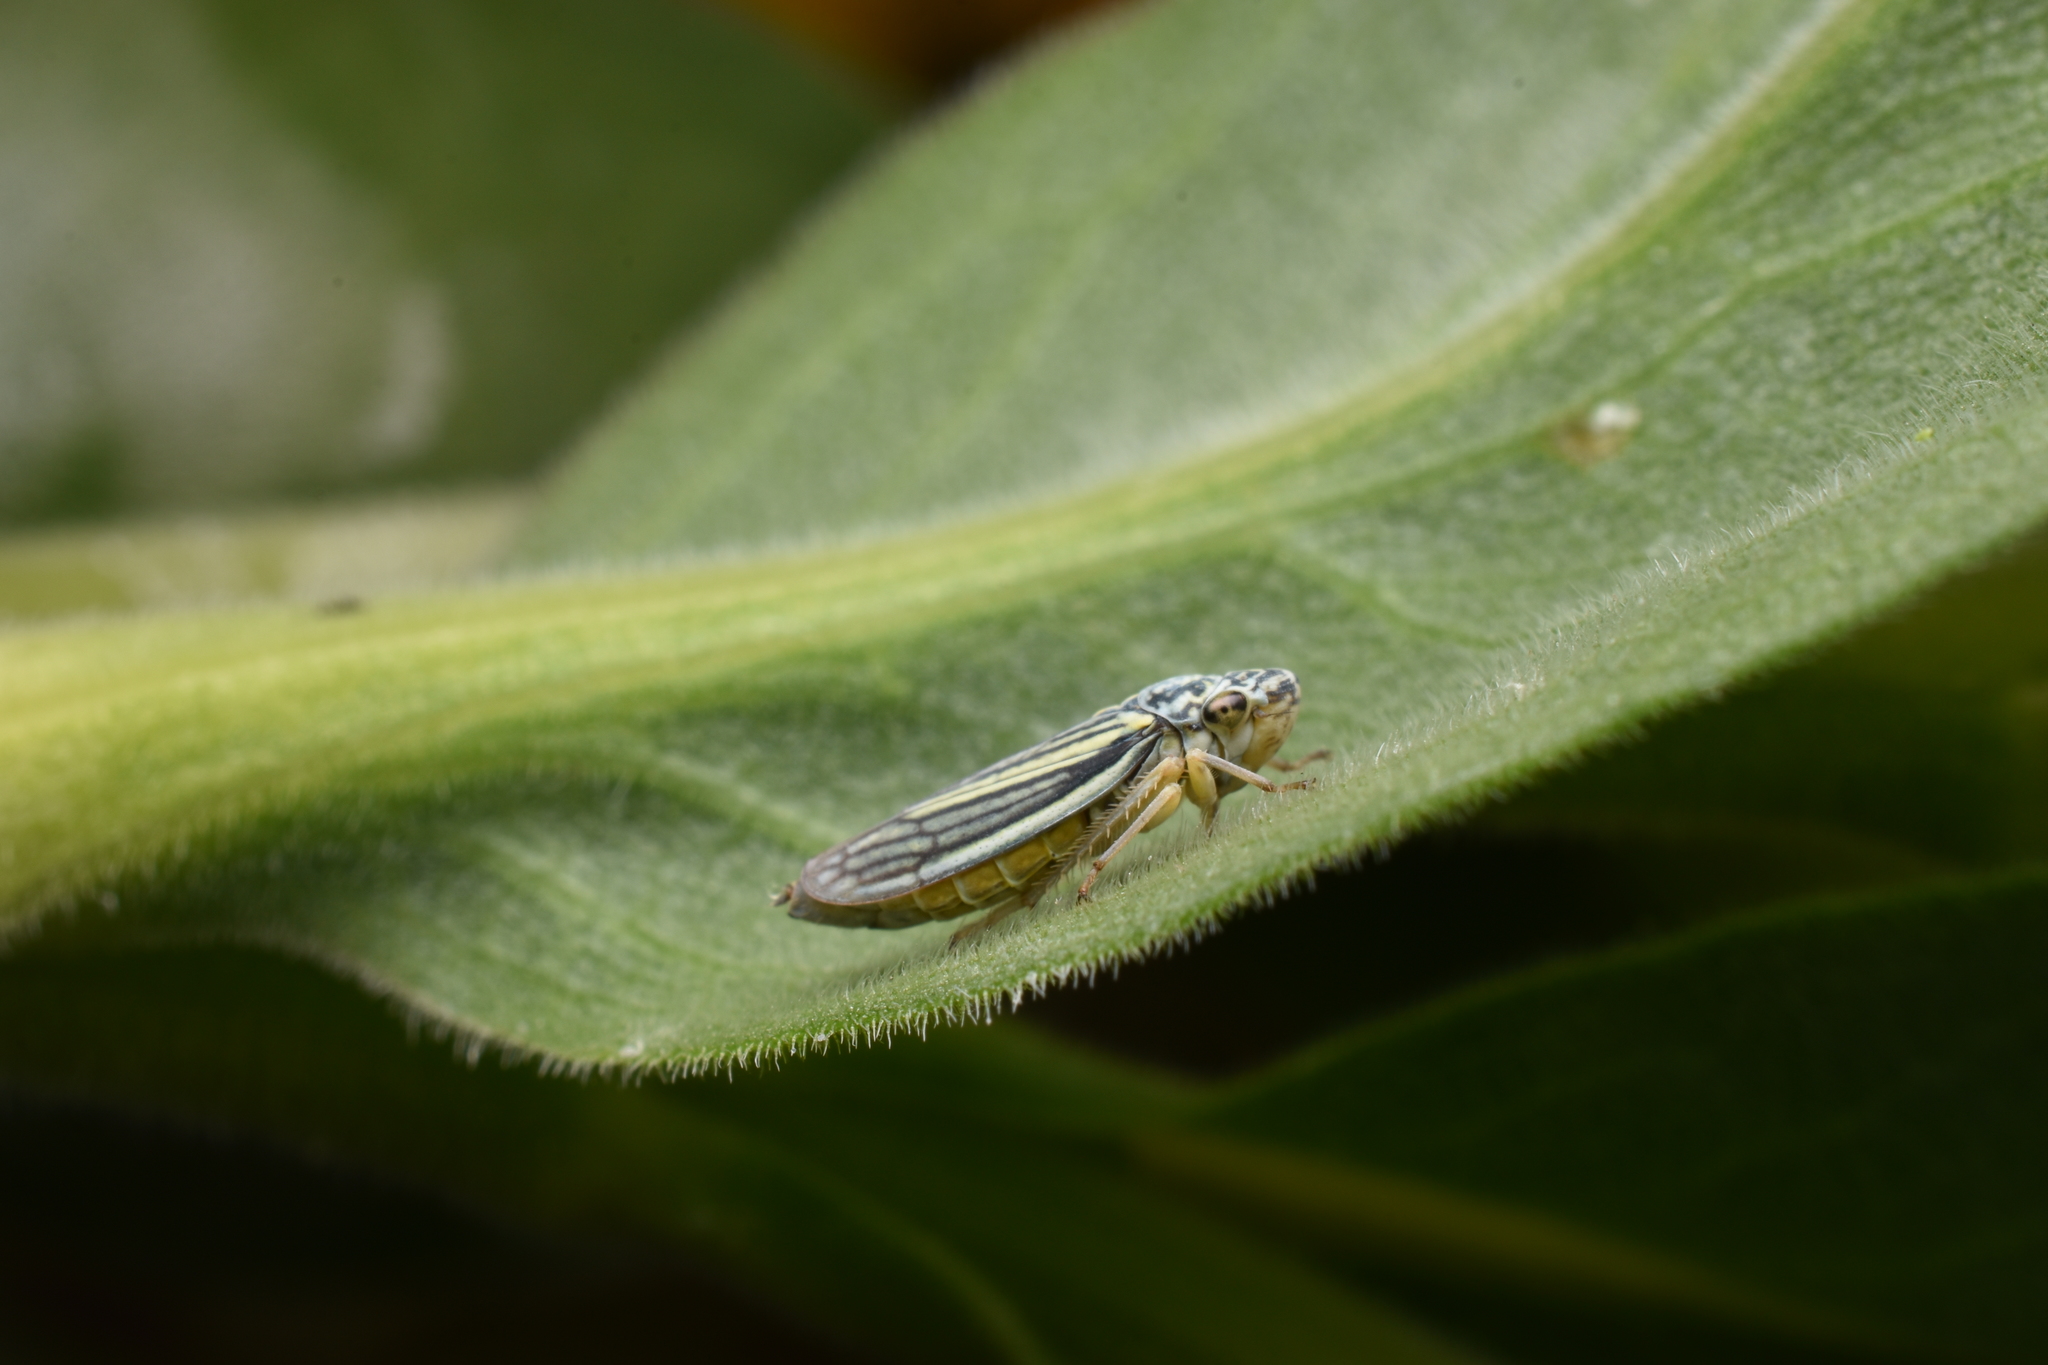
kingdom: Animalia
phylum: Arthropoda
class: Insecta
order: Hemiptera
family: Cicadellidae
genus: Neokolla
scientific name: Neokolla hieroglyphica
